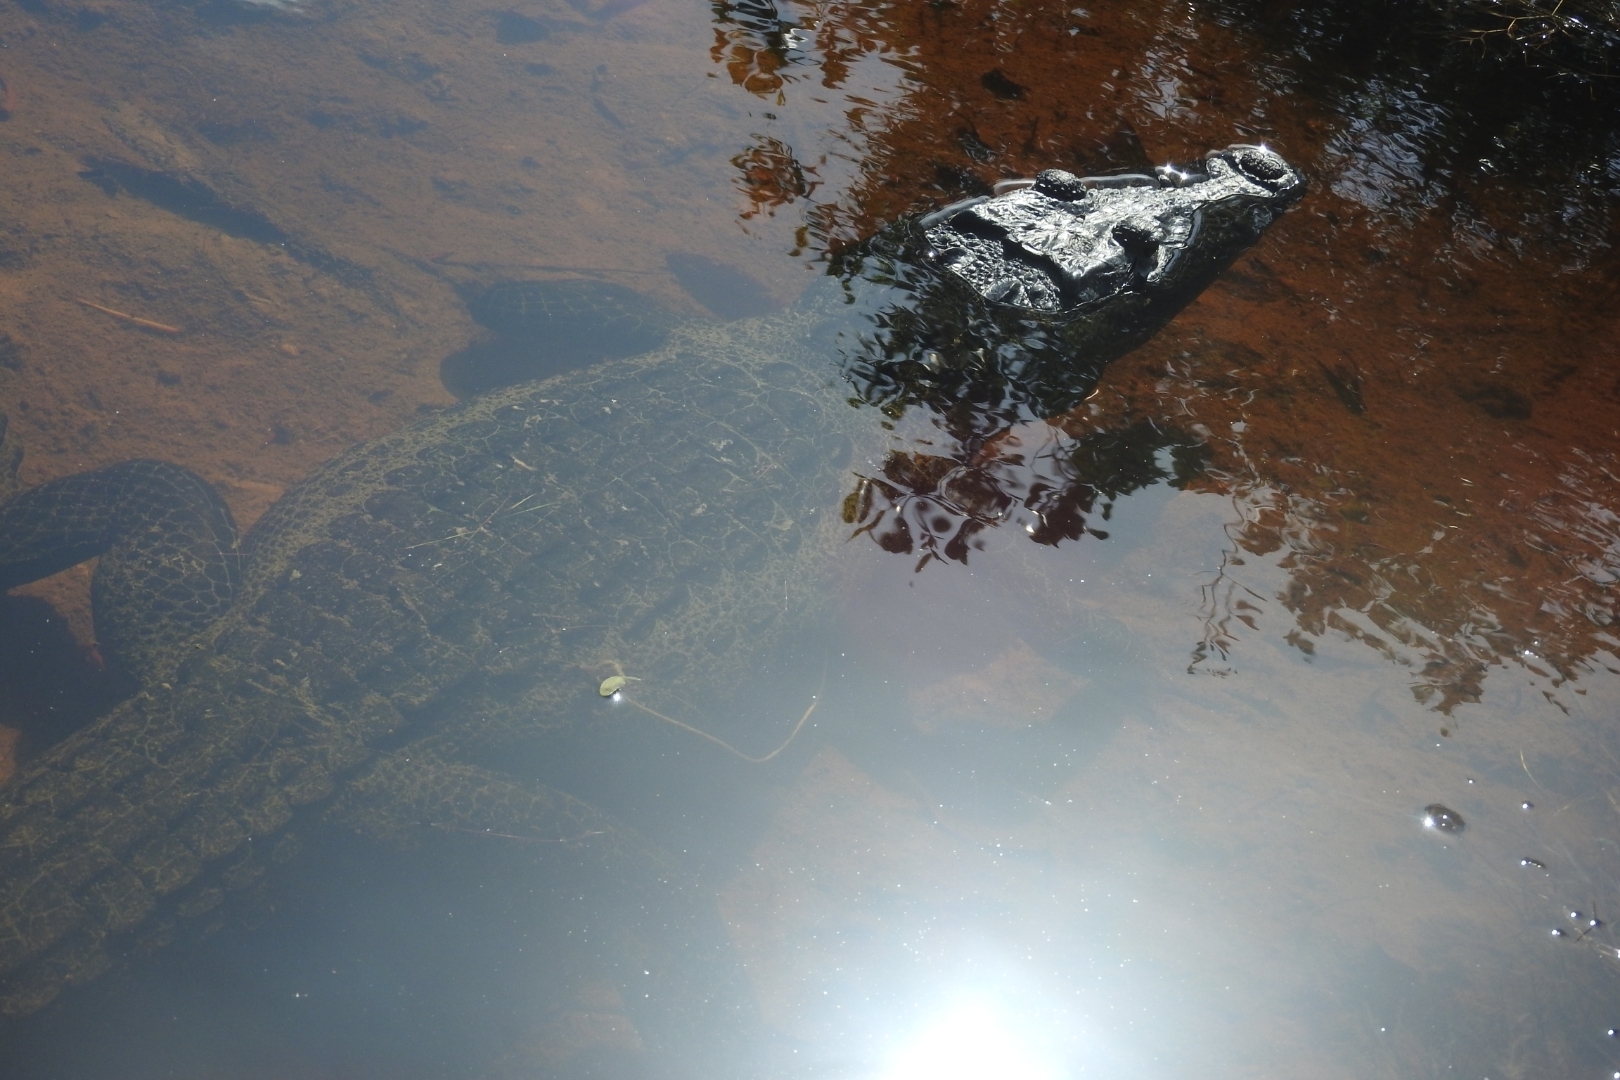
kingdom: Animalia
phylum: Chordata
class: Crocodylia
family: Crocodylidae
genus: Crocodylus
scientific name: Crocodylus moreletii
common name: Morelet's crocodile
